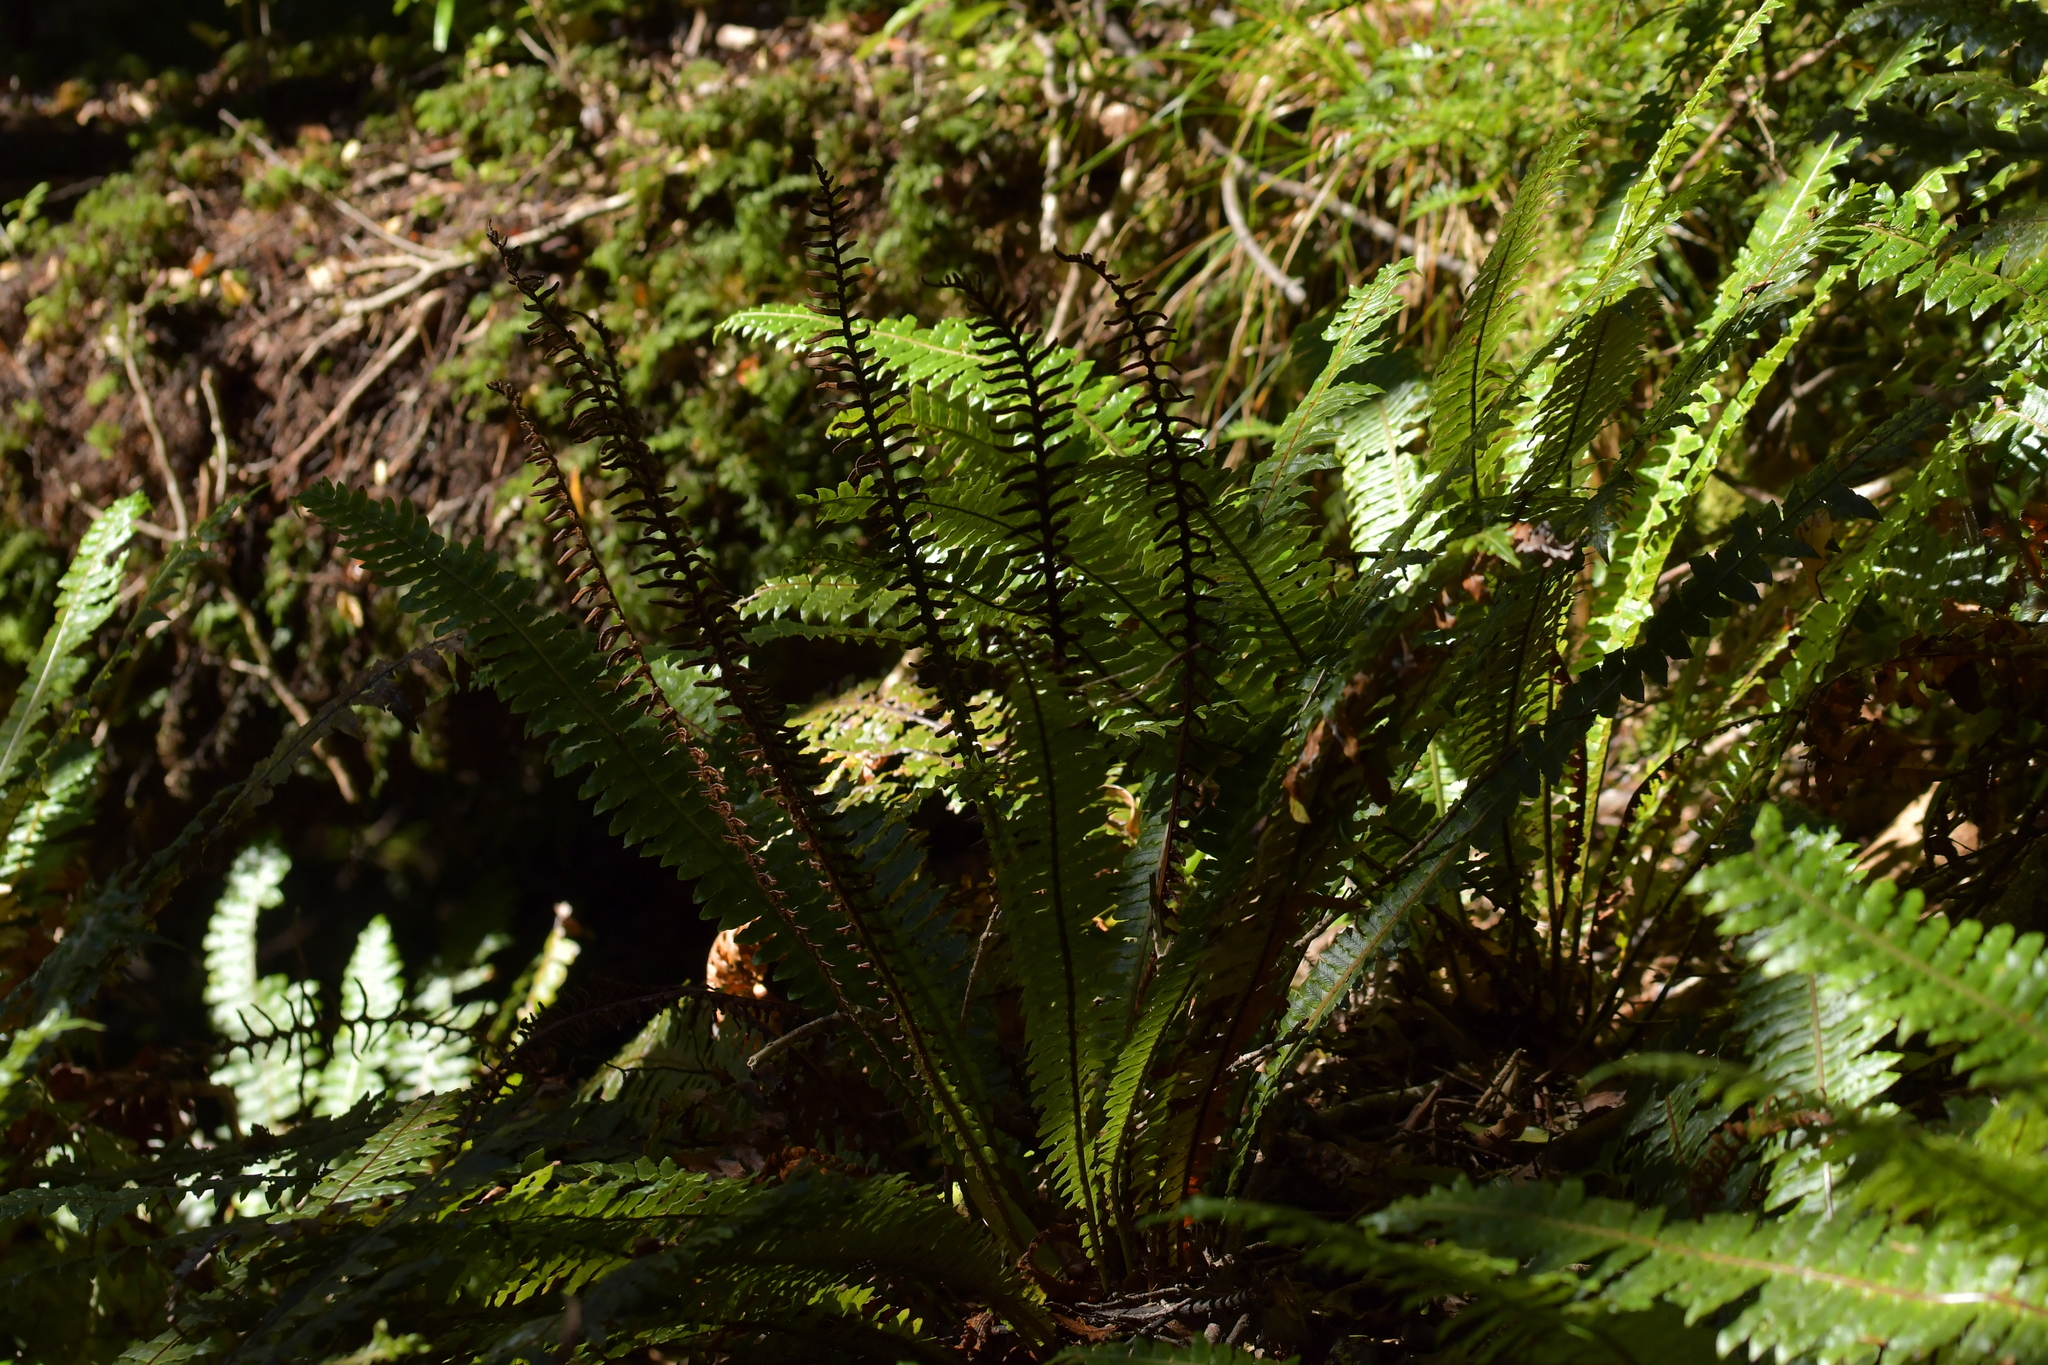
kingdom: Plantae
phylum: Tracheophyta
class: Polypodiopsida
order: Polypodiales
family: Blechnaceae
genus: Lomaria
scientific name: Lomaria discolor
